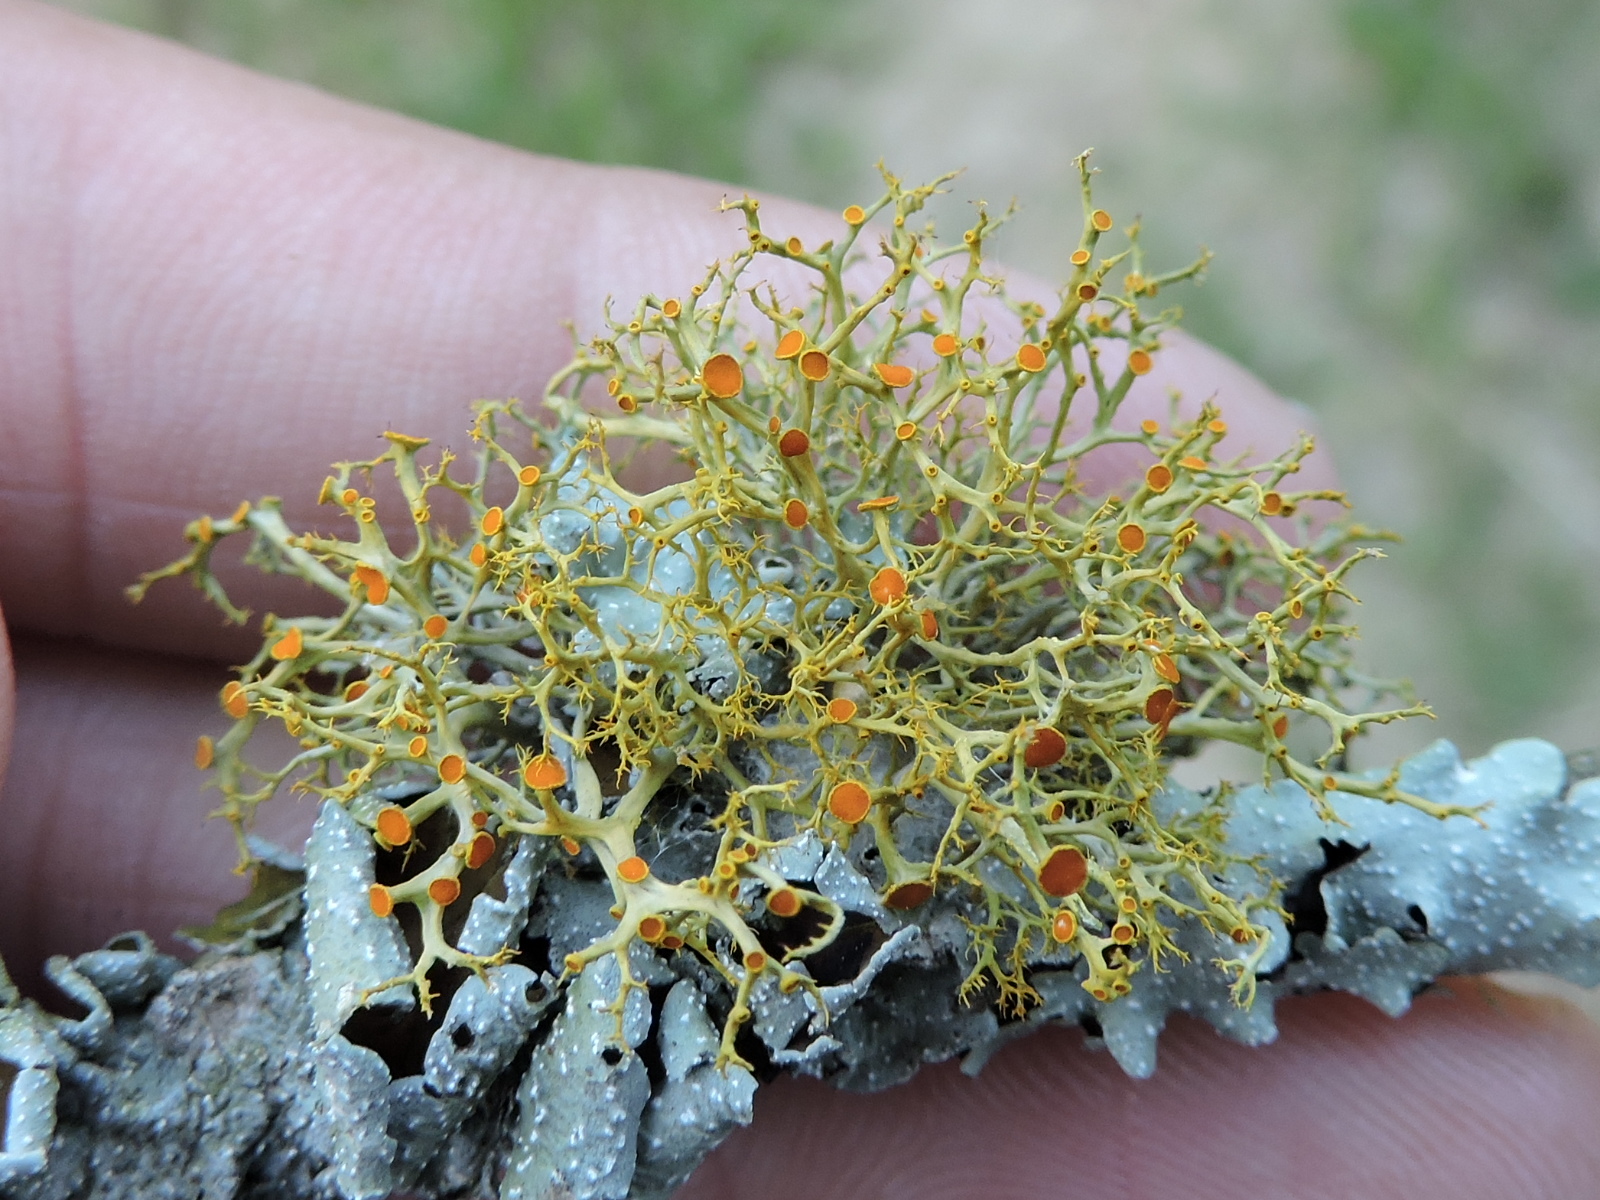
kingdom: Fungi
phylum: Ascomycota
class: Lecanoromycetes
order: Teloschistales
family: Teloschistaceae
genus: Teloschistes
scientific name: Teloschistes exilis
